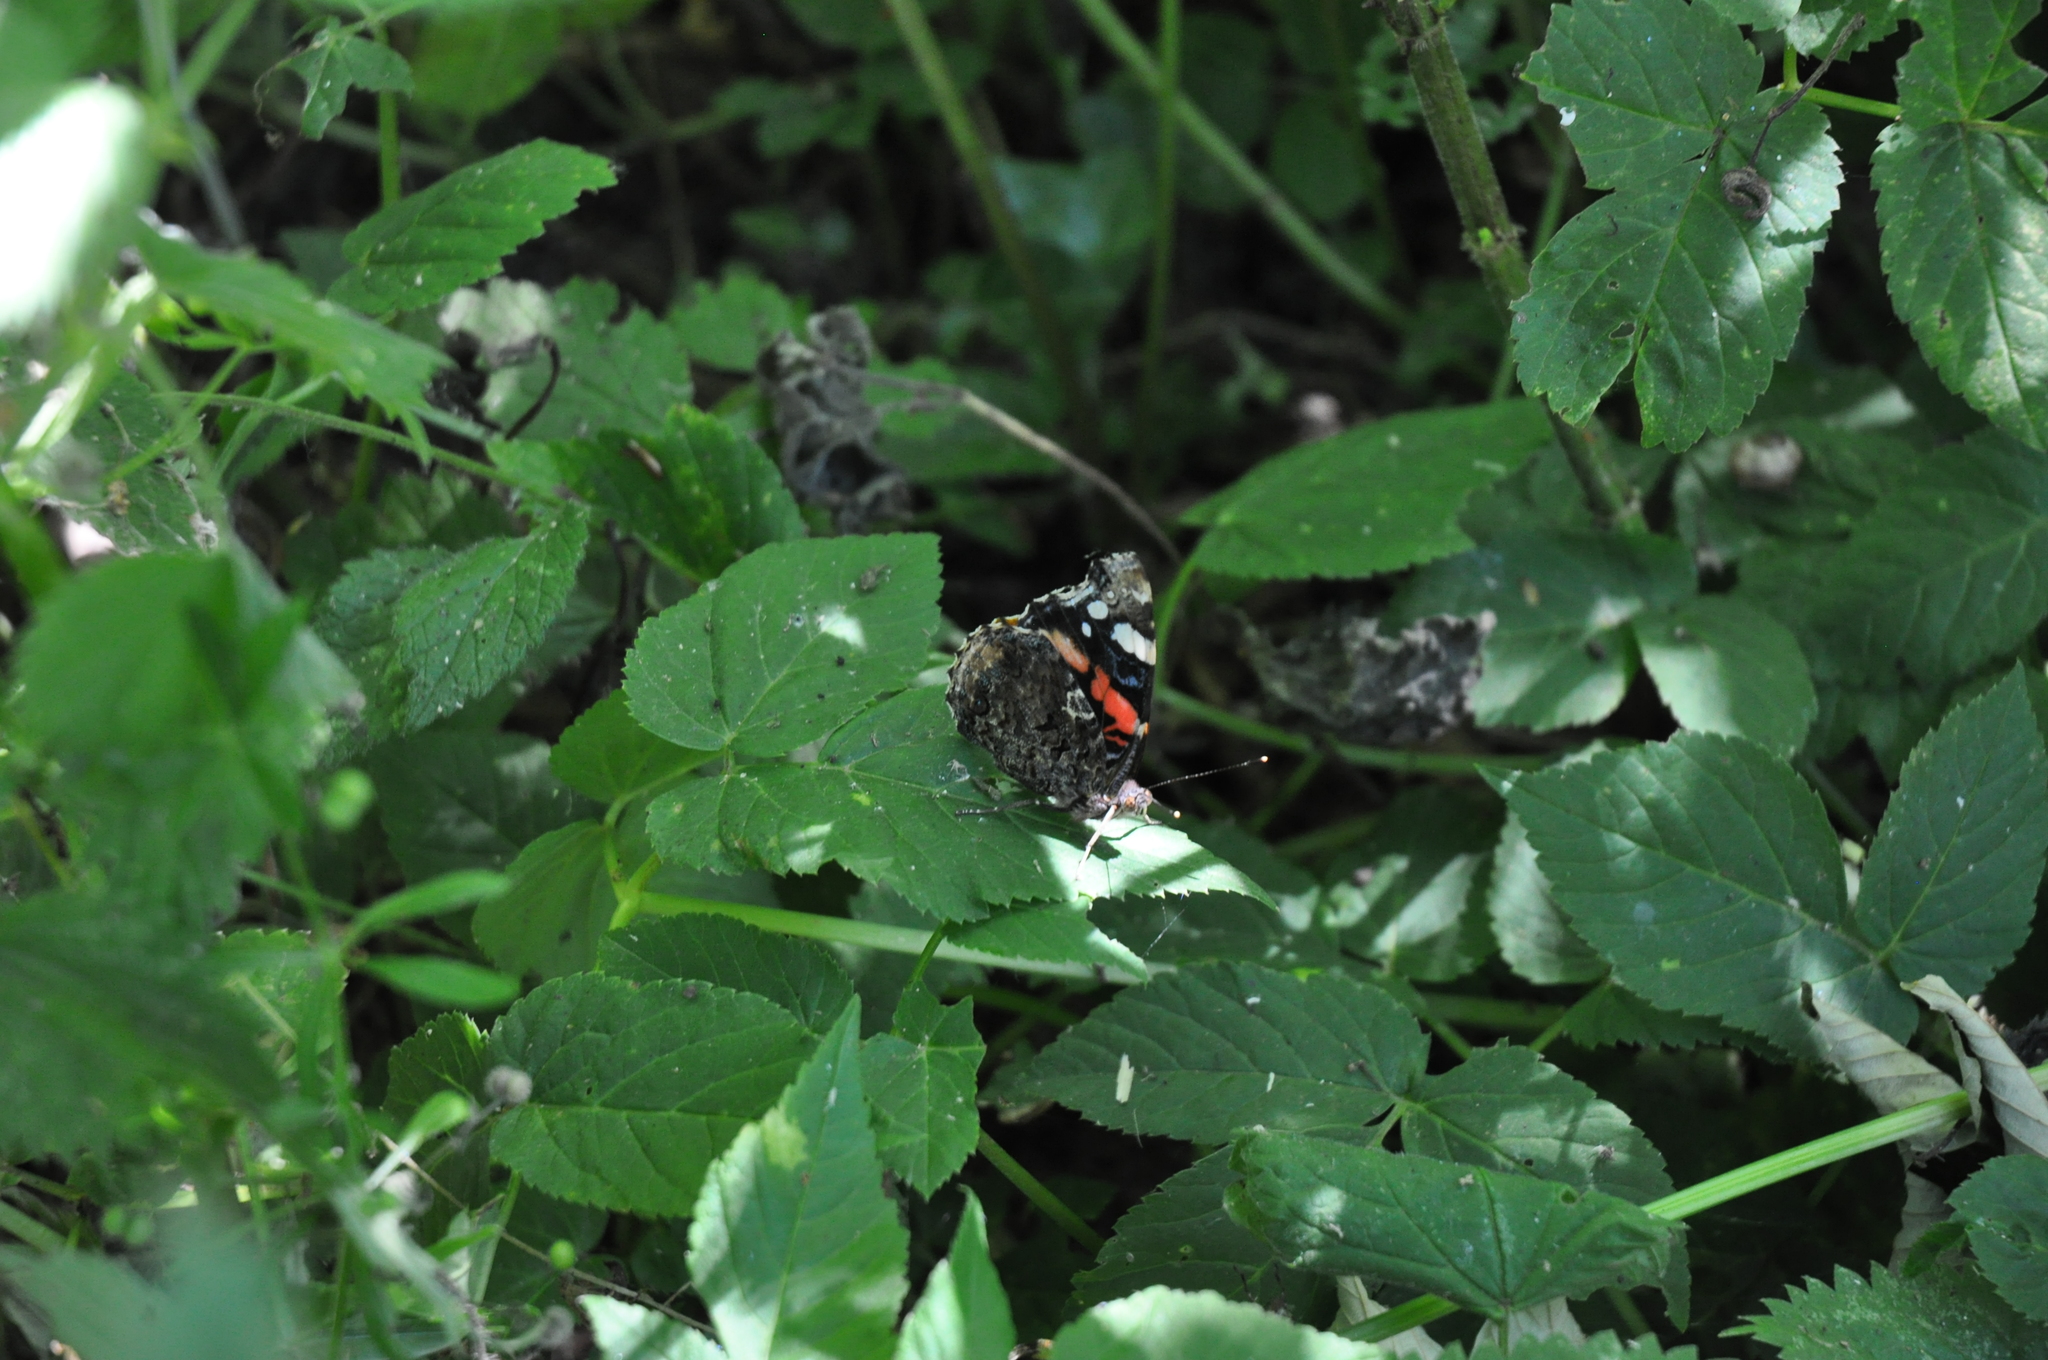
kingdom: Animalia
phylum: Arthropoda
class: Insecta
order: Lepidoptera
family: Nymphalidae
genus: Vanessa
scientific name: Vanessa atalanta
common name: Red admiral
